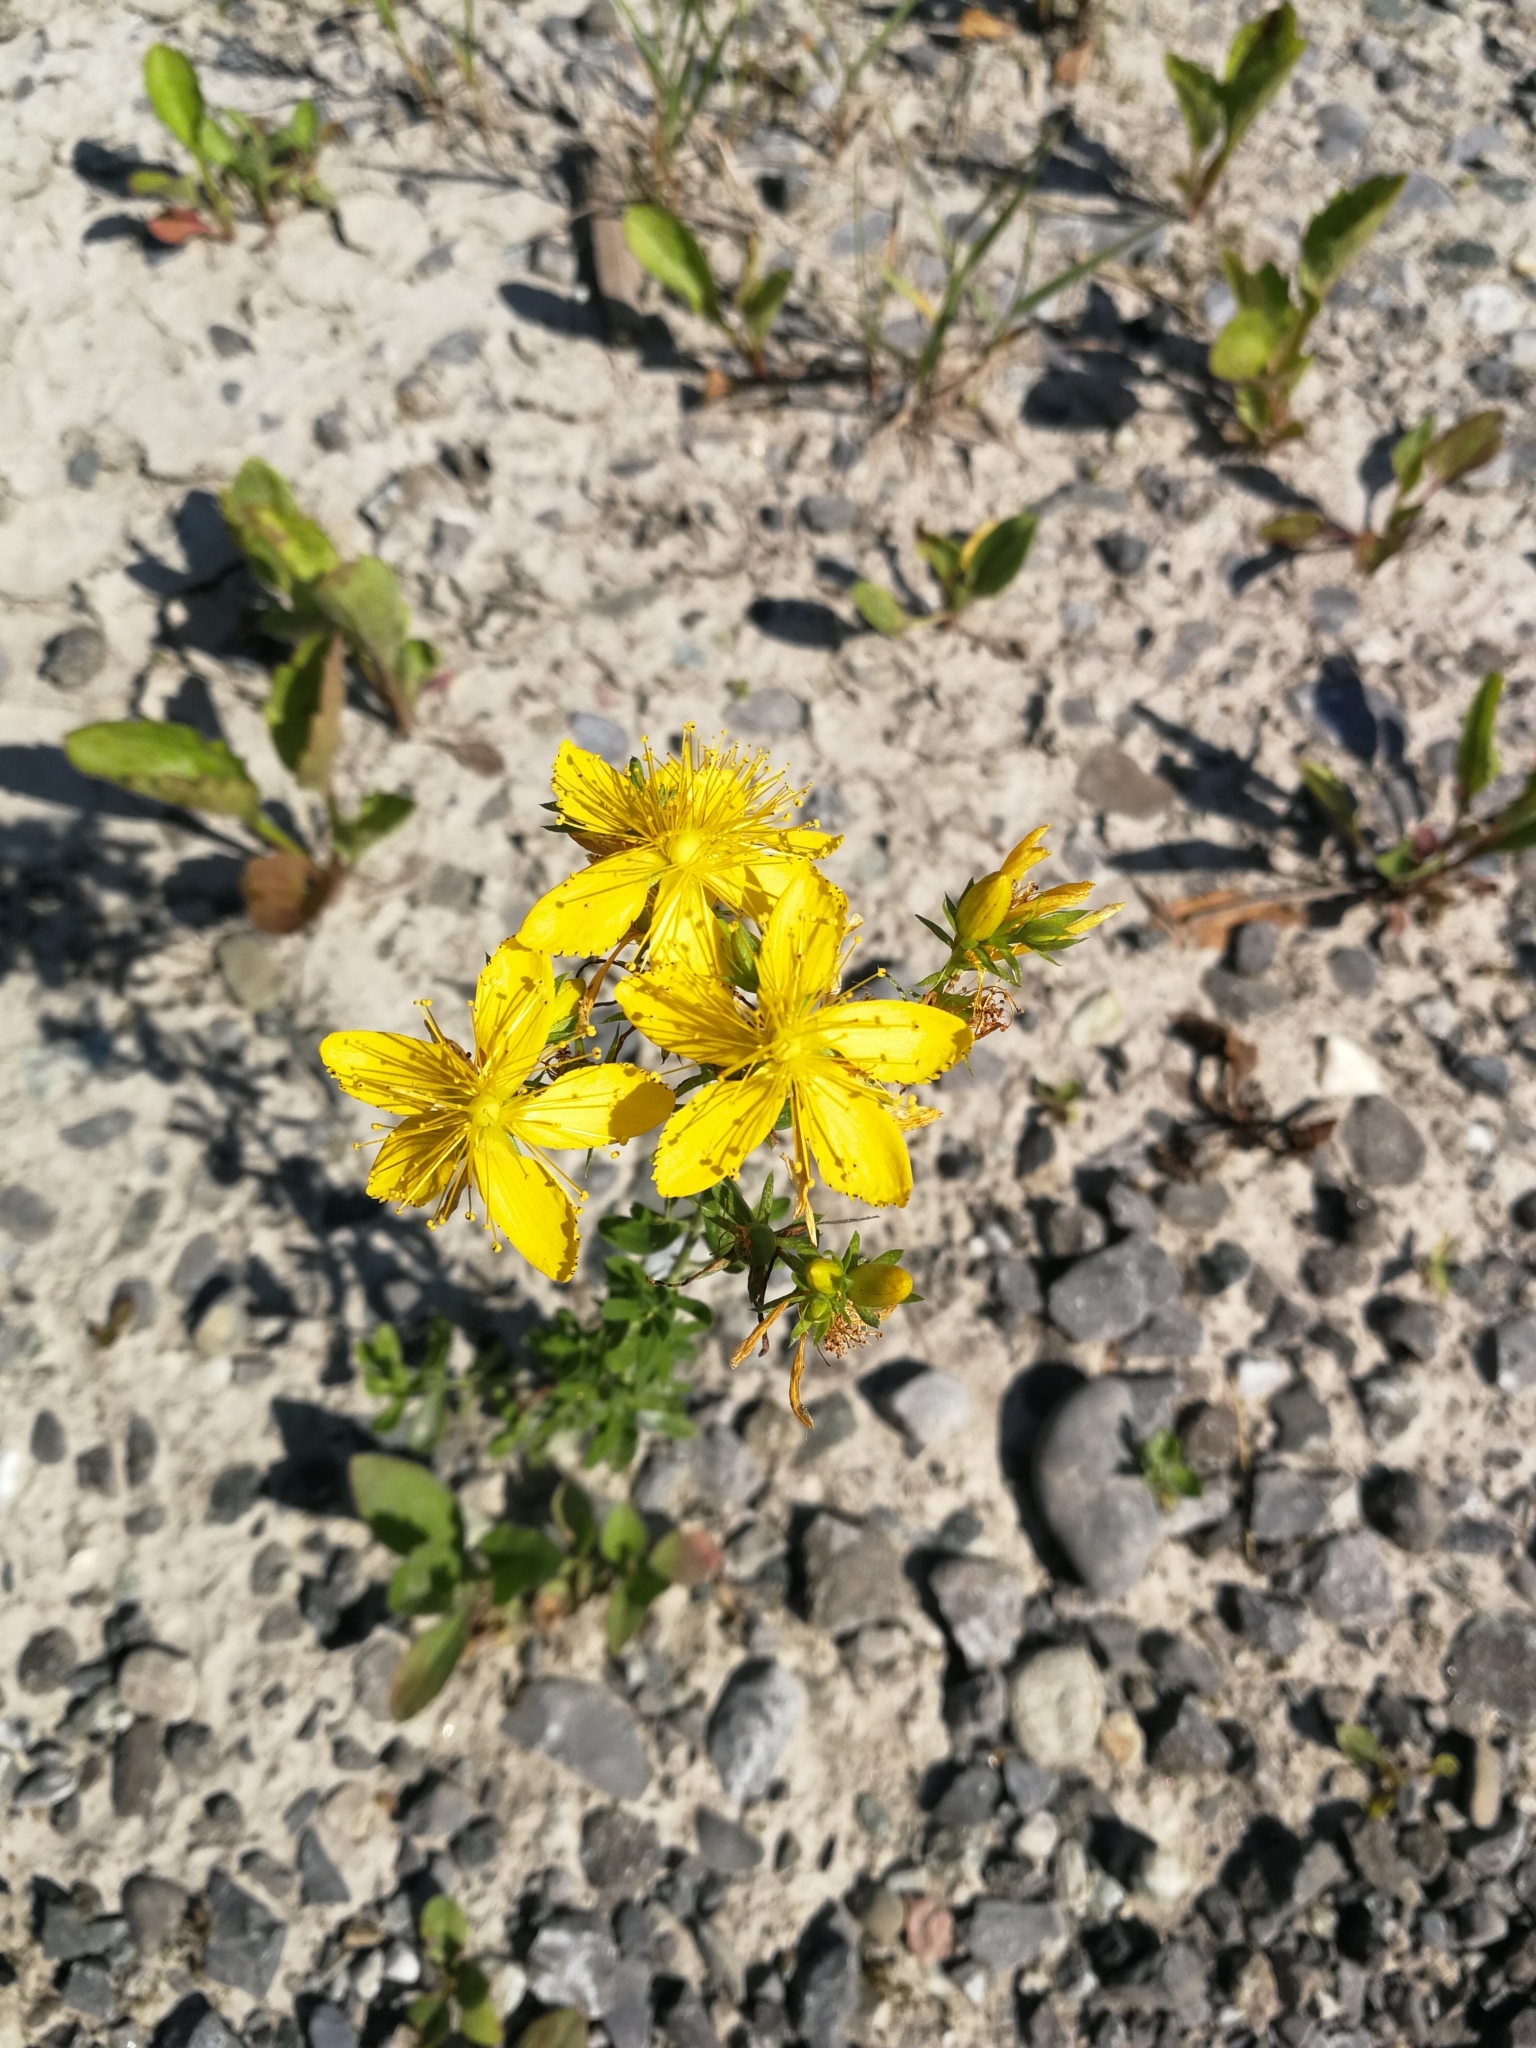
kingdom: Plantae
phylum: Tracheophyta
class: Magnoliopsida
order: Malpighiales
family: Hypericaceae
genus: Hypericum
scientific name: Hypericum perforatum
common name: Common st. johnswort
